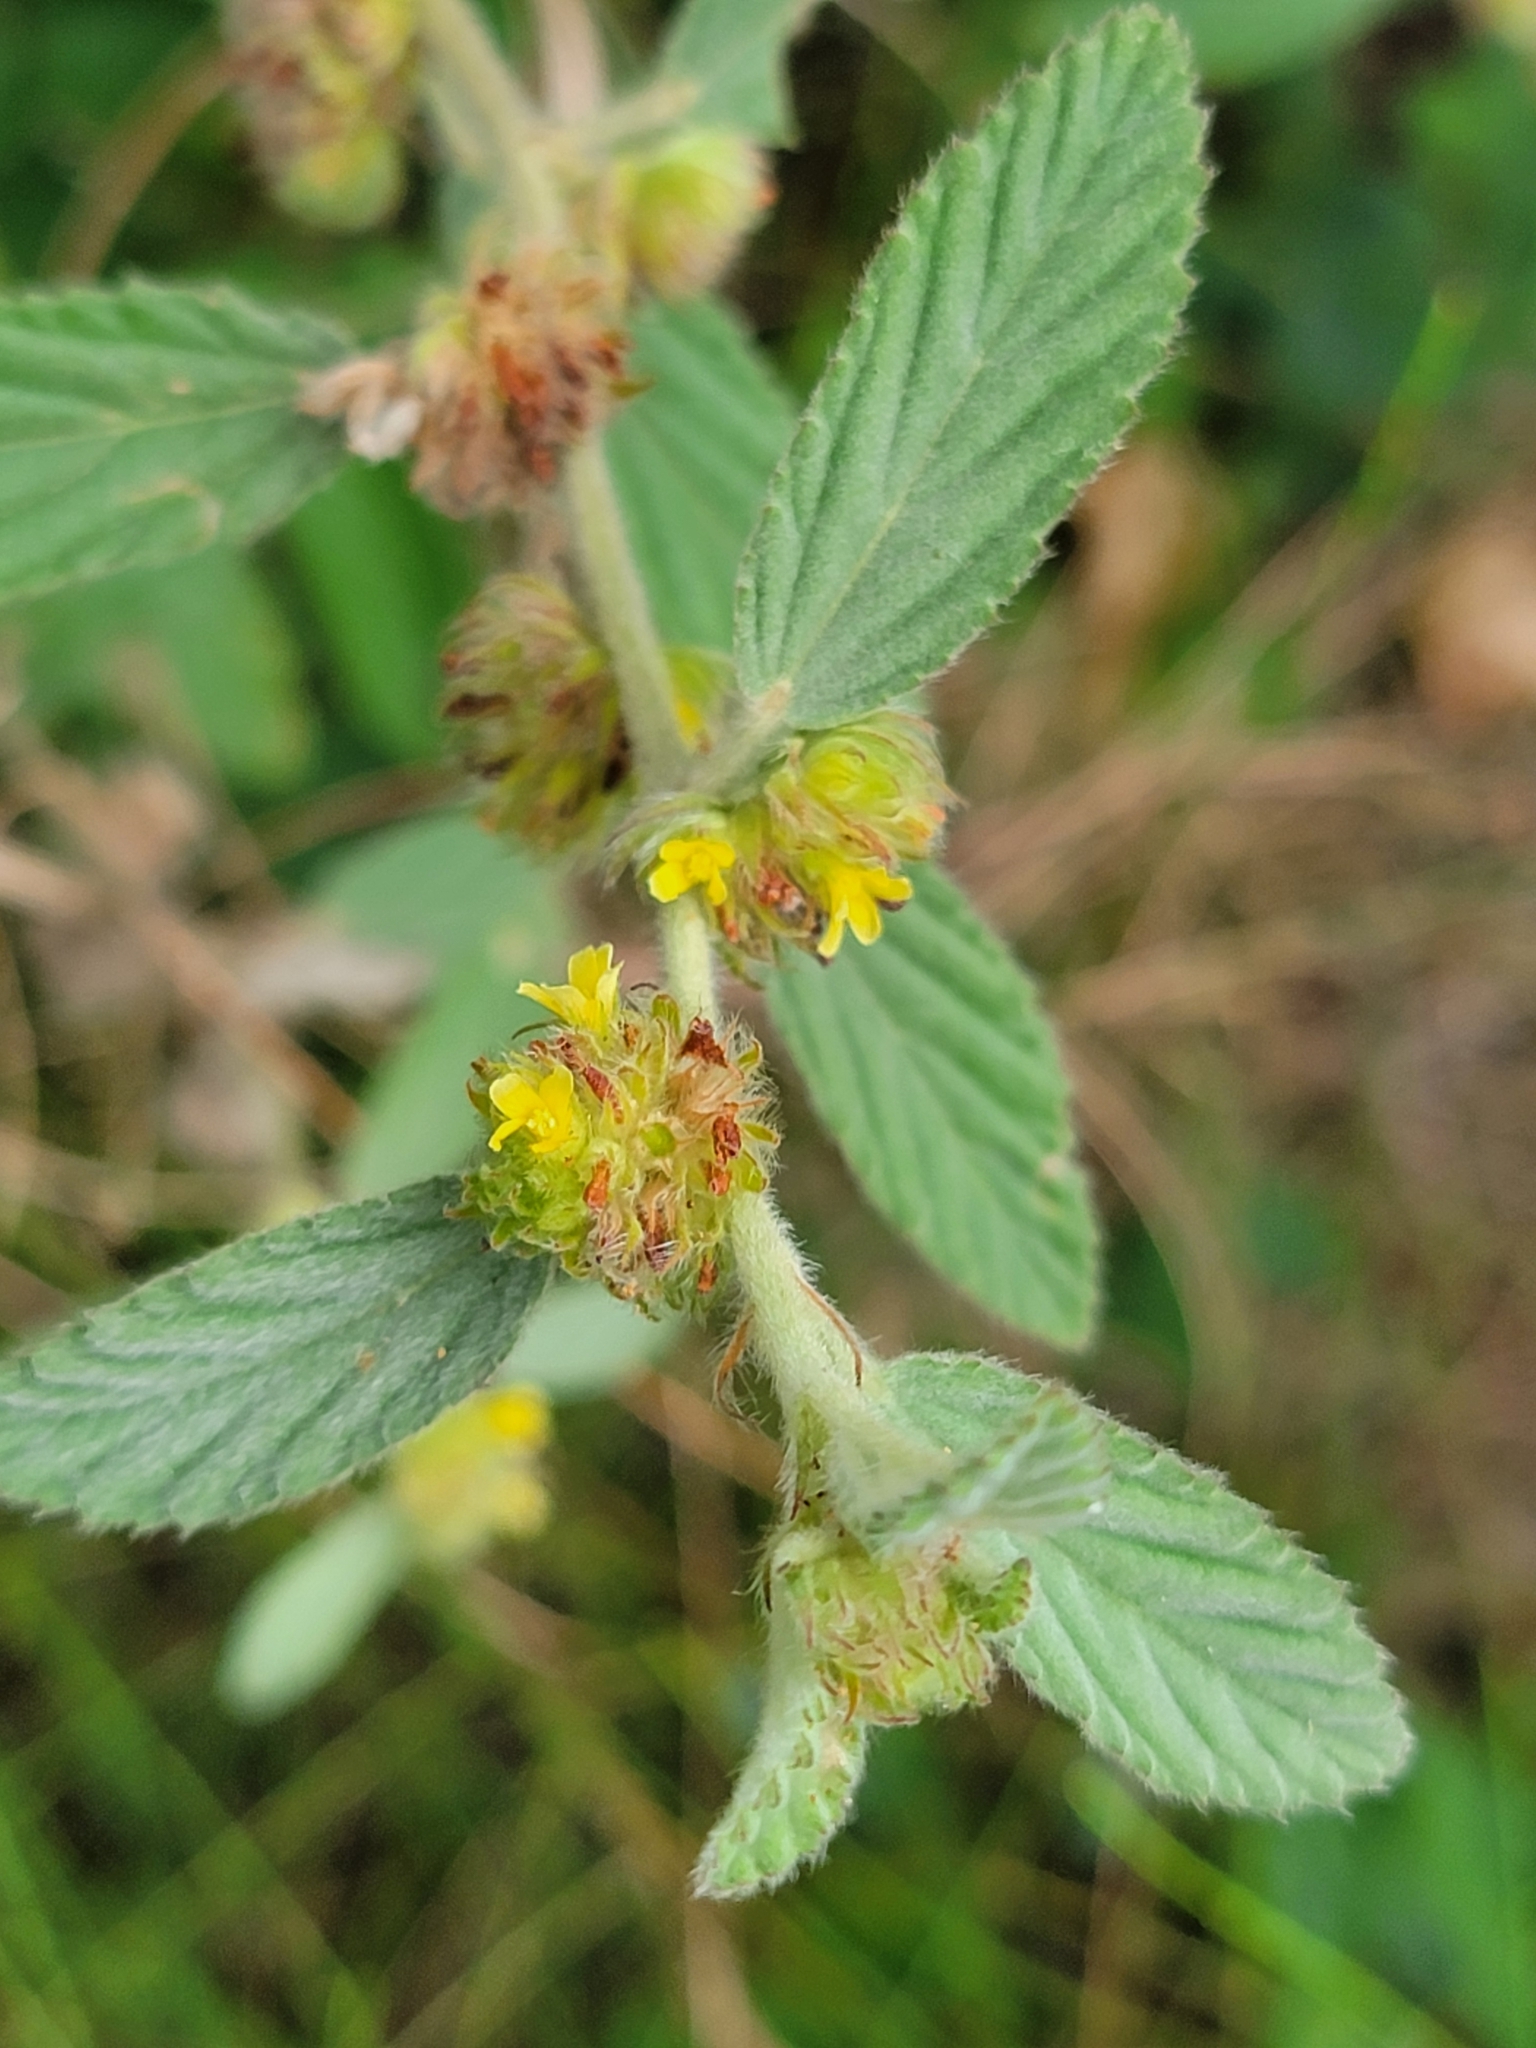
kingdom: Plantae
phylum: Tracheophyta
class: Magnoliopsida
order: Malvales
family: Malvaceae
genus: Waltheria
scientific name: Waltheria indica
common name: Leather-coat
